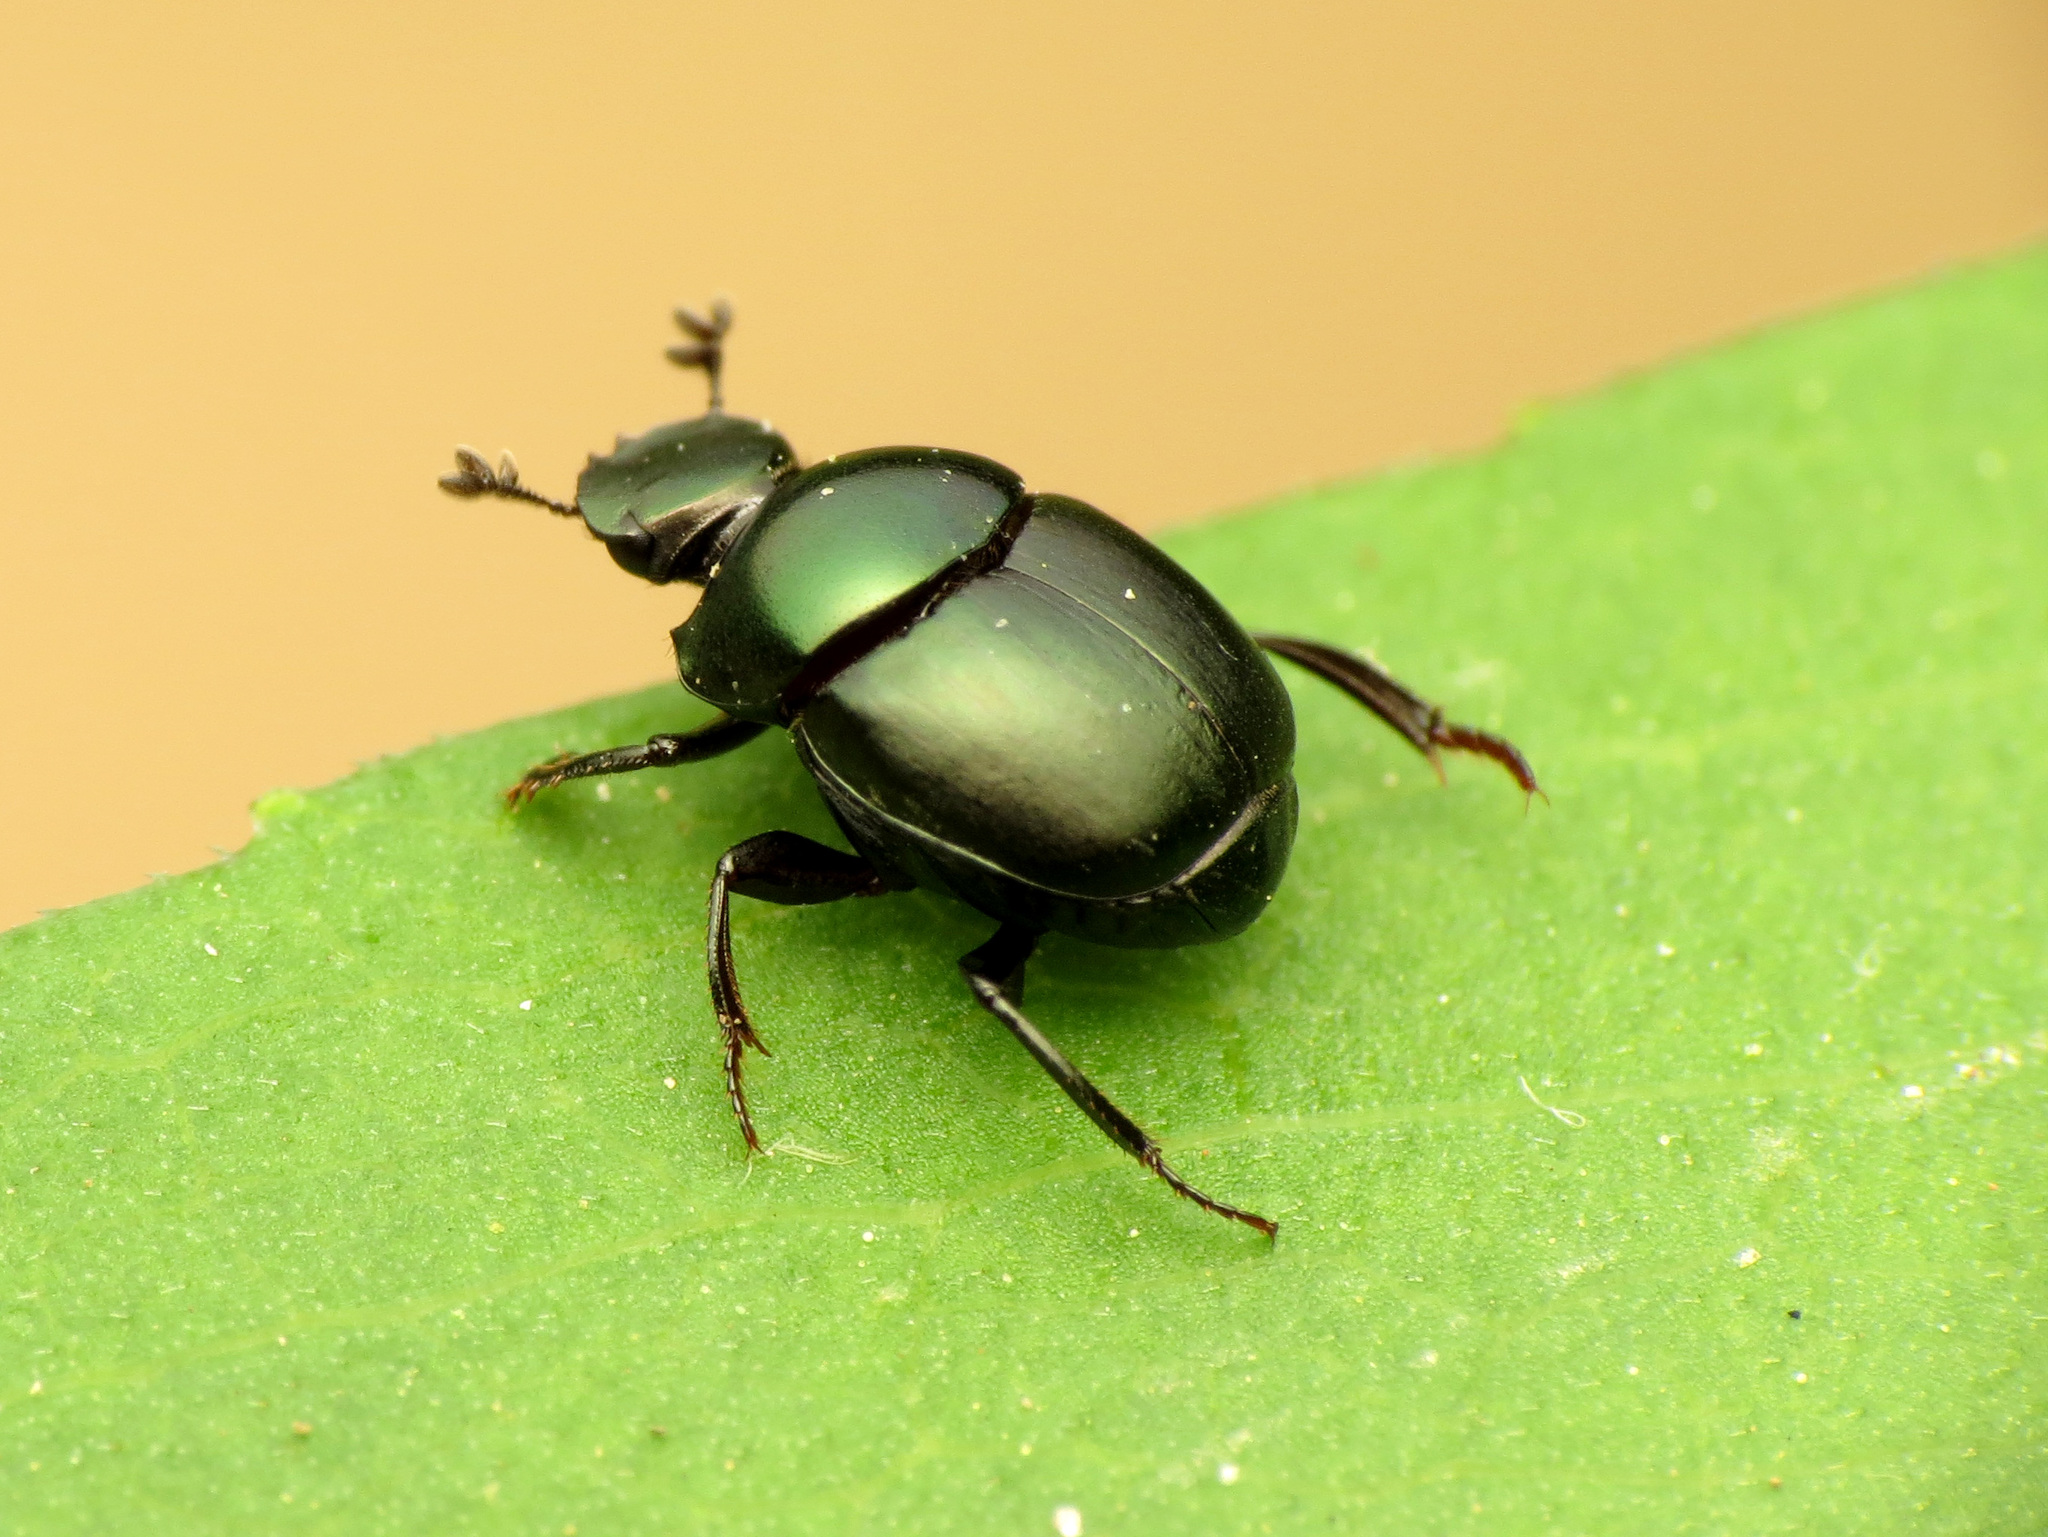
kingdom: Animalia
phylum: Arthropoda
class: Insecta
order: Coleoptera
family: Scarabaeidae
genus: Canthon
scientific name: Canthon viridis
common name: Tumblebug
